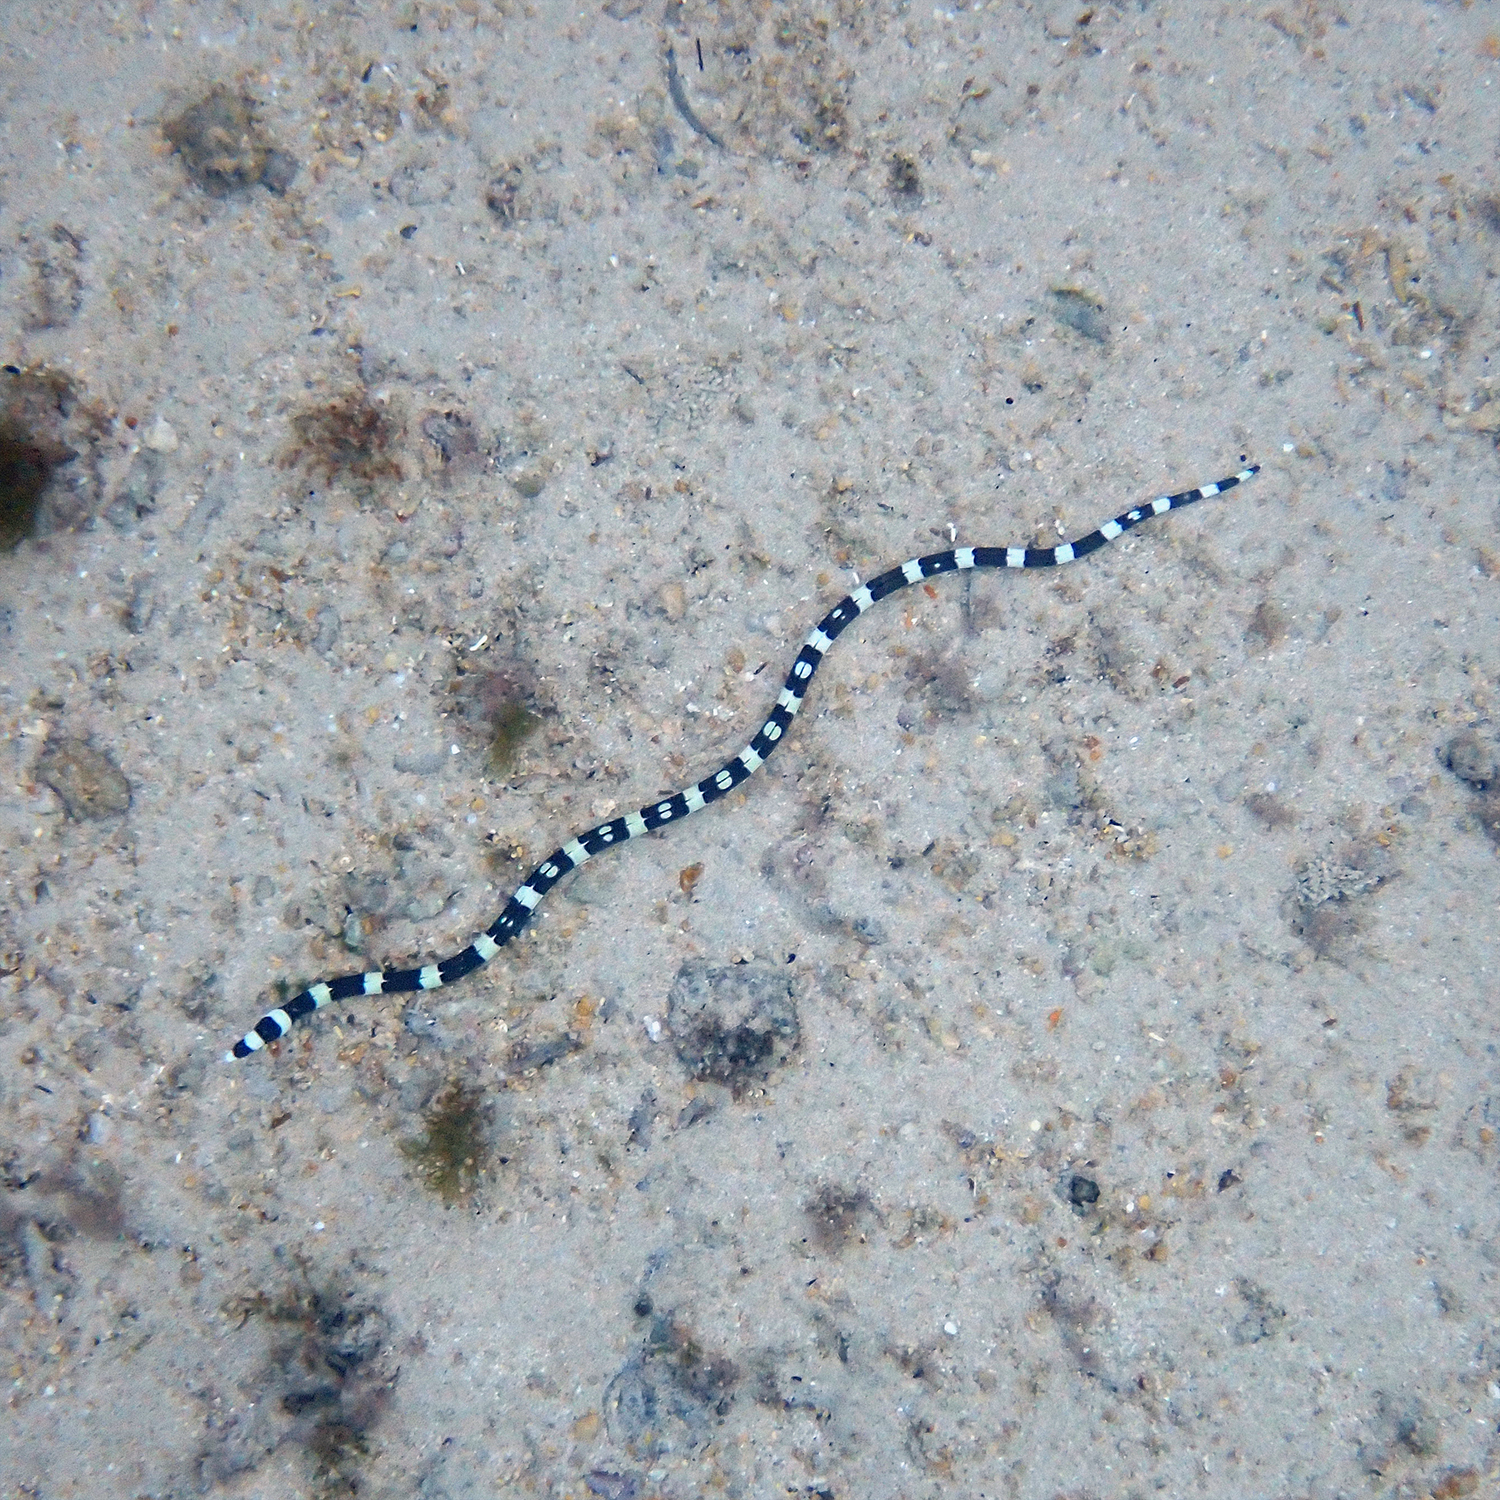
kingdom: Animalia
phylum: Chordata
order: Anguilliformes
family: Ophichthidae
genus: Leiuranus
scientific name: Leiuranus versicolor
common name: Convict snake eel
